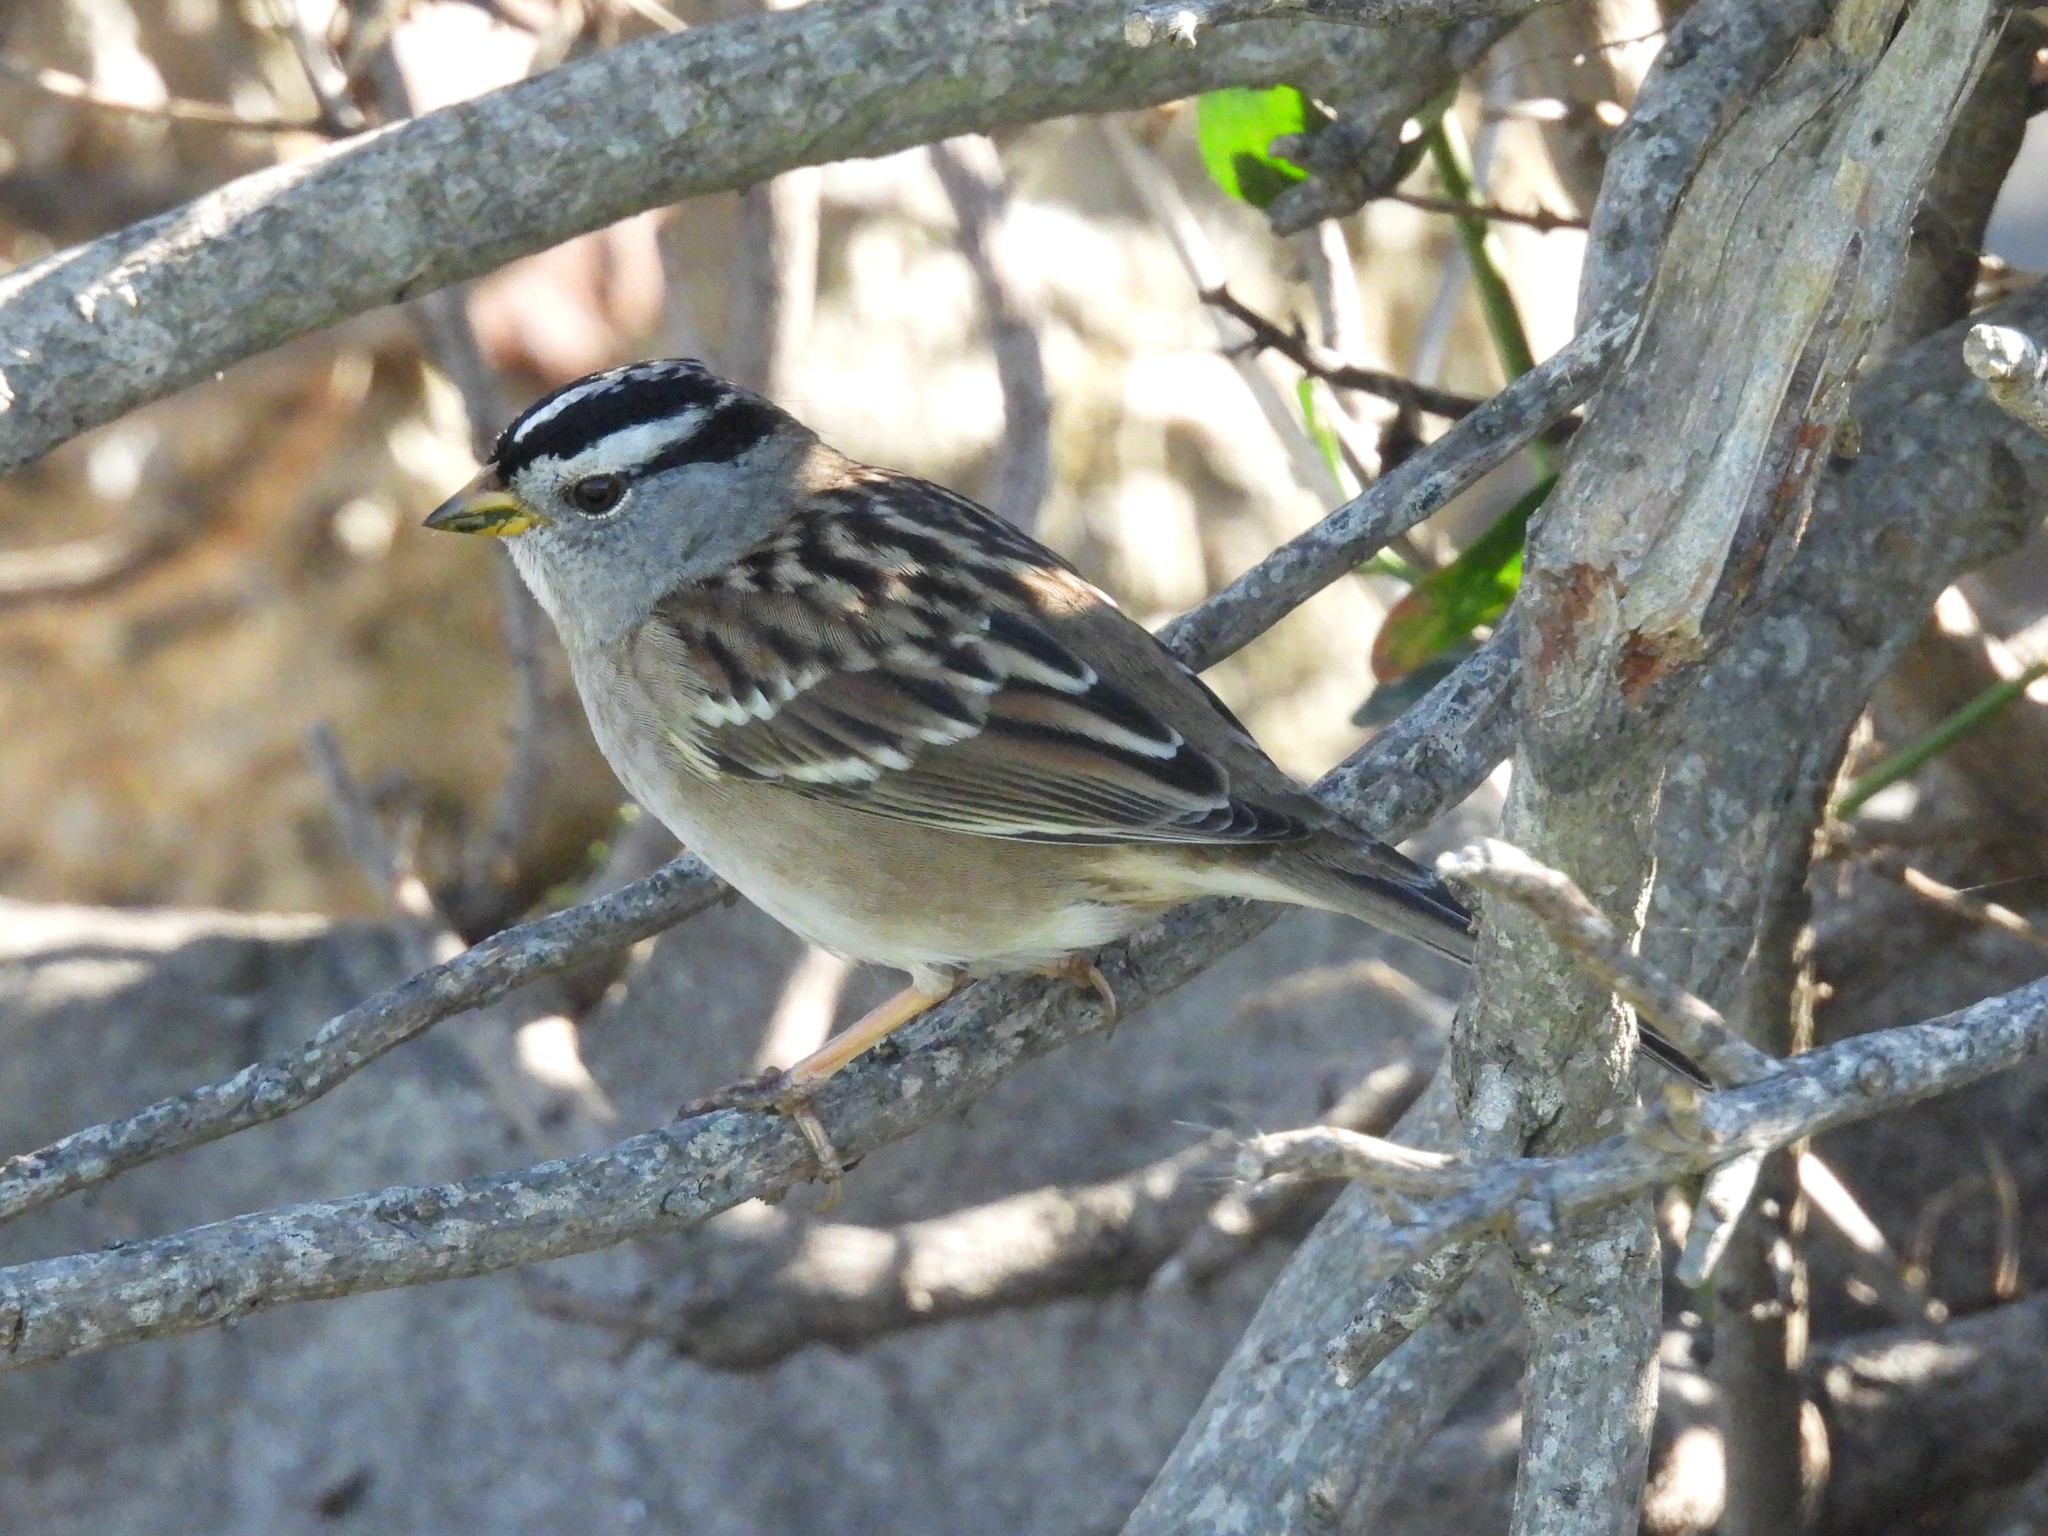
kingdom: Animalia
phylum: Chordata
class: Aves
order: Passeriformes
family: Passerellidae
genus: Zonotrichia
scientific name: Zonotrichia leucophrys
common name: White-crowned sparrow
